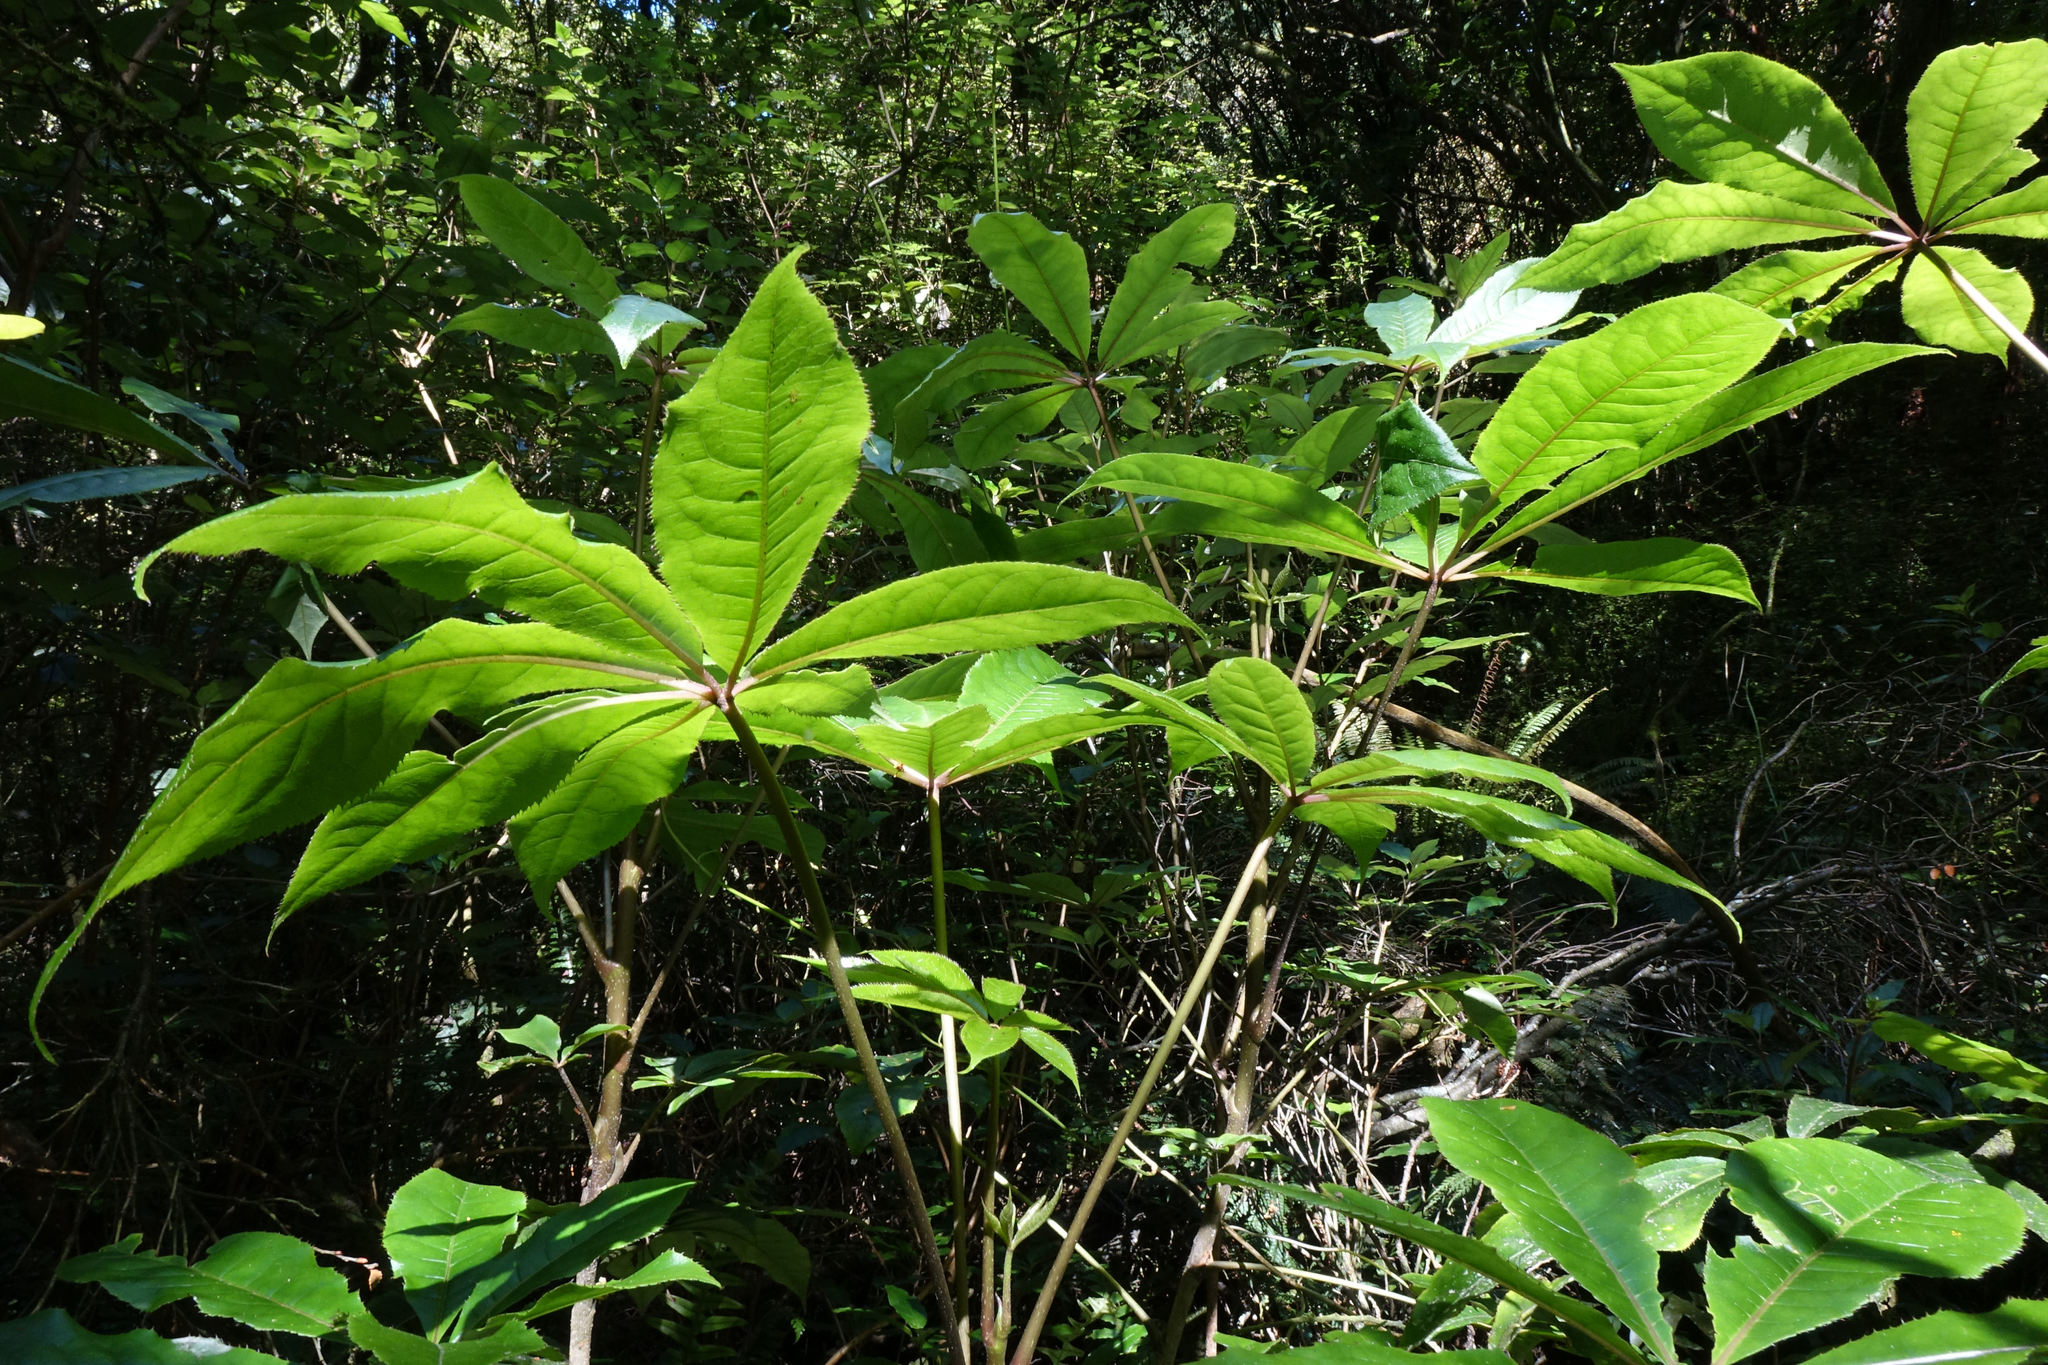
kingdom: Plantae
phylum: Tracheophyta
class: Magnoliopsida
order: Apiales
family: Araliaceae
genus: Schefflera
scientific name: Schefflera digitata
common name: Pate
